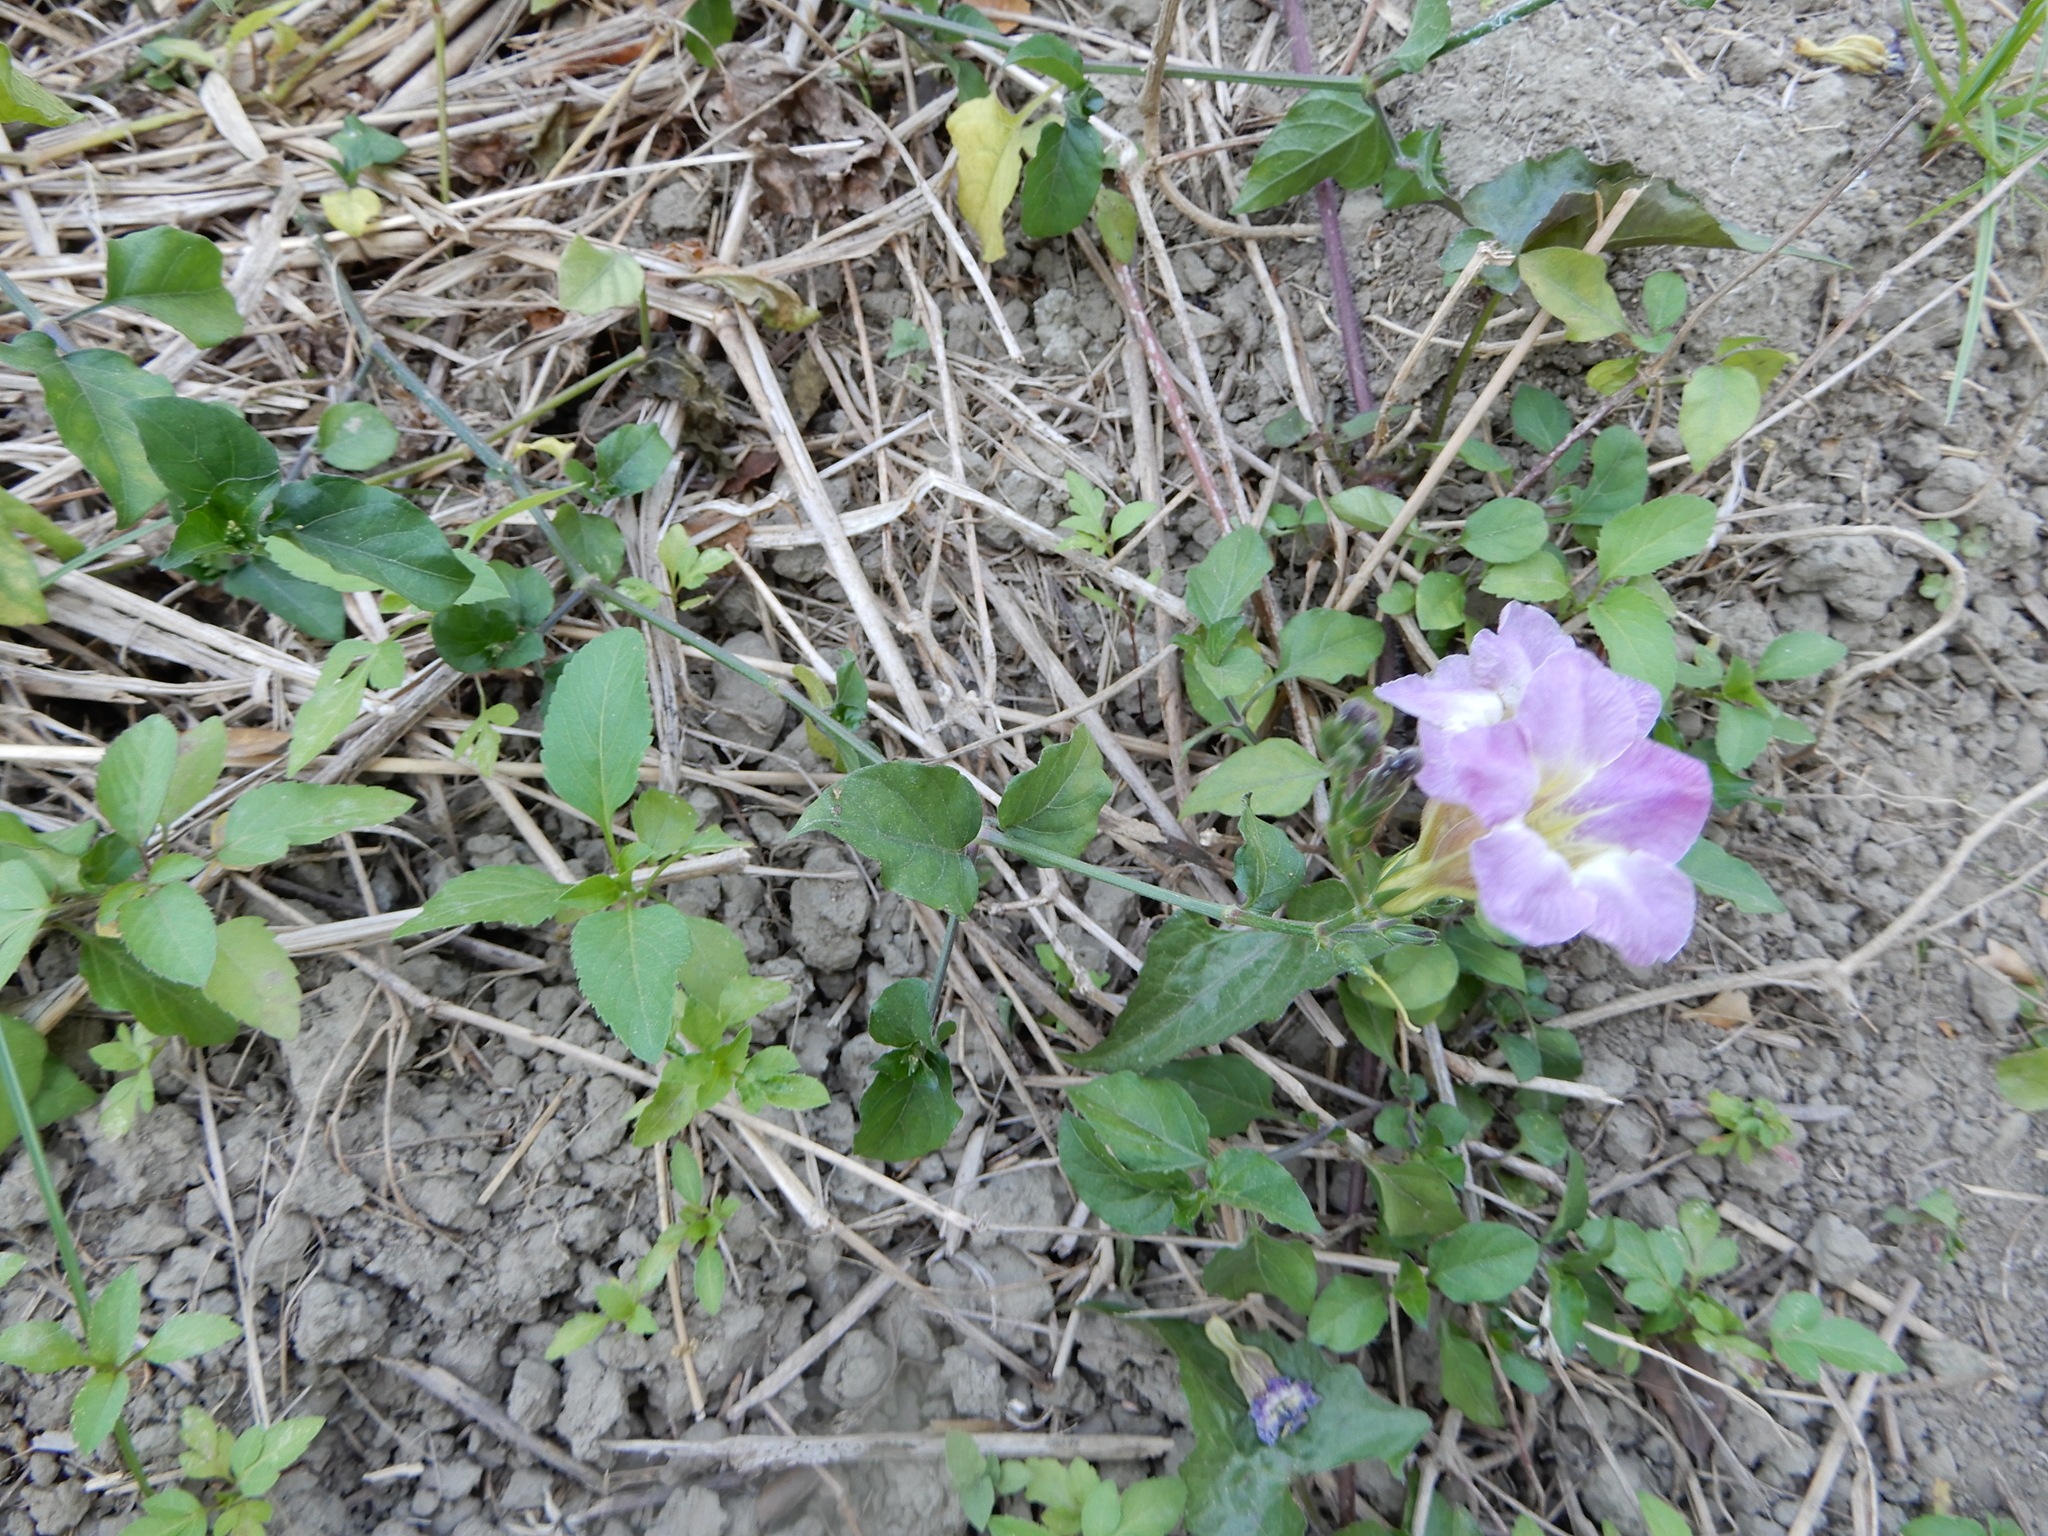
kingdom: Plantae
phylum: Tracheophyta
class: Magnoliopsida
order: Lamiales
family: Acanthaceae
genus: Asystasia
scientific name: Asystasia gangetica
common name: Chinese violet
